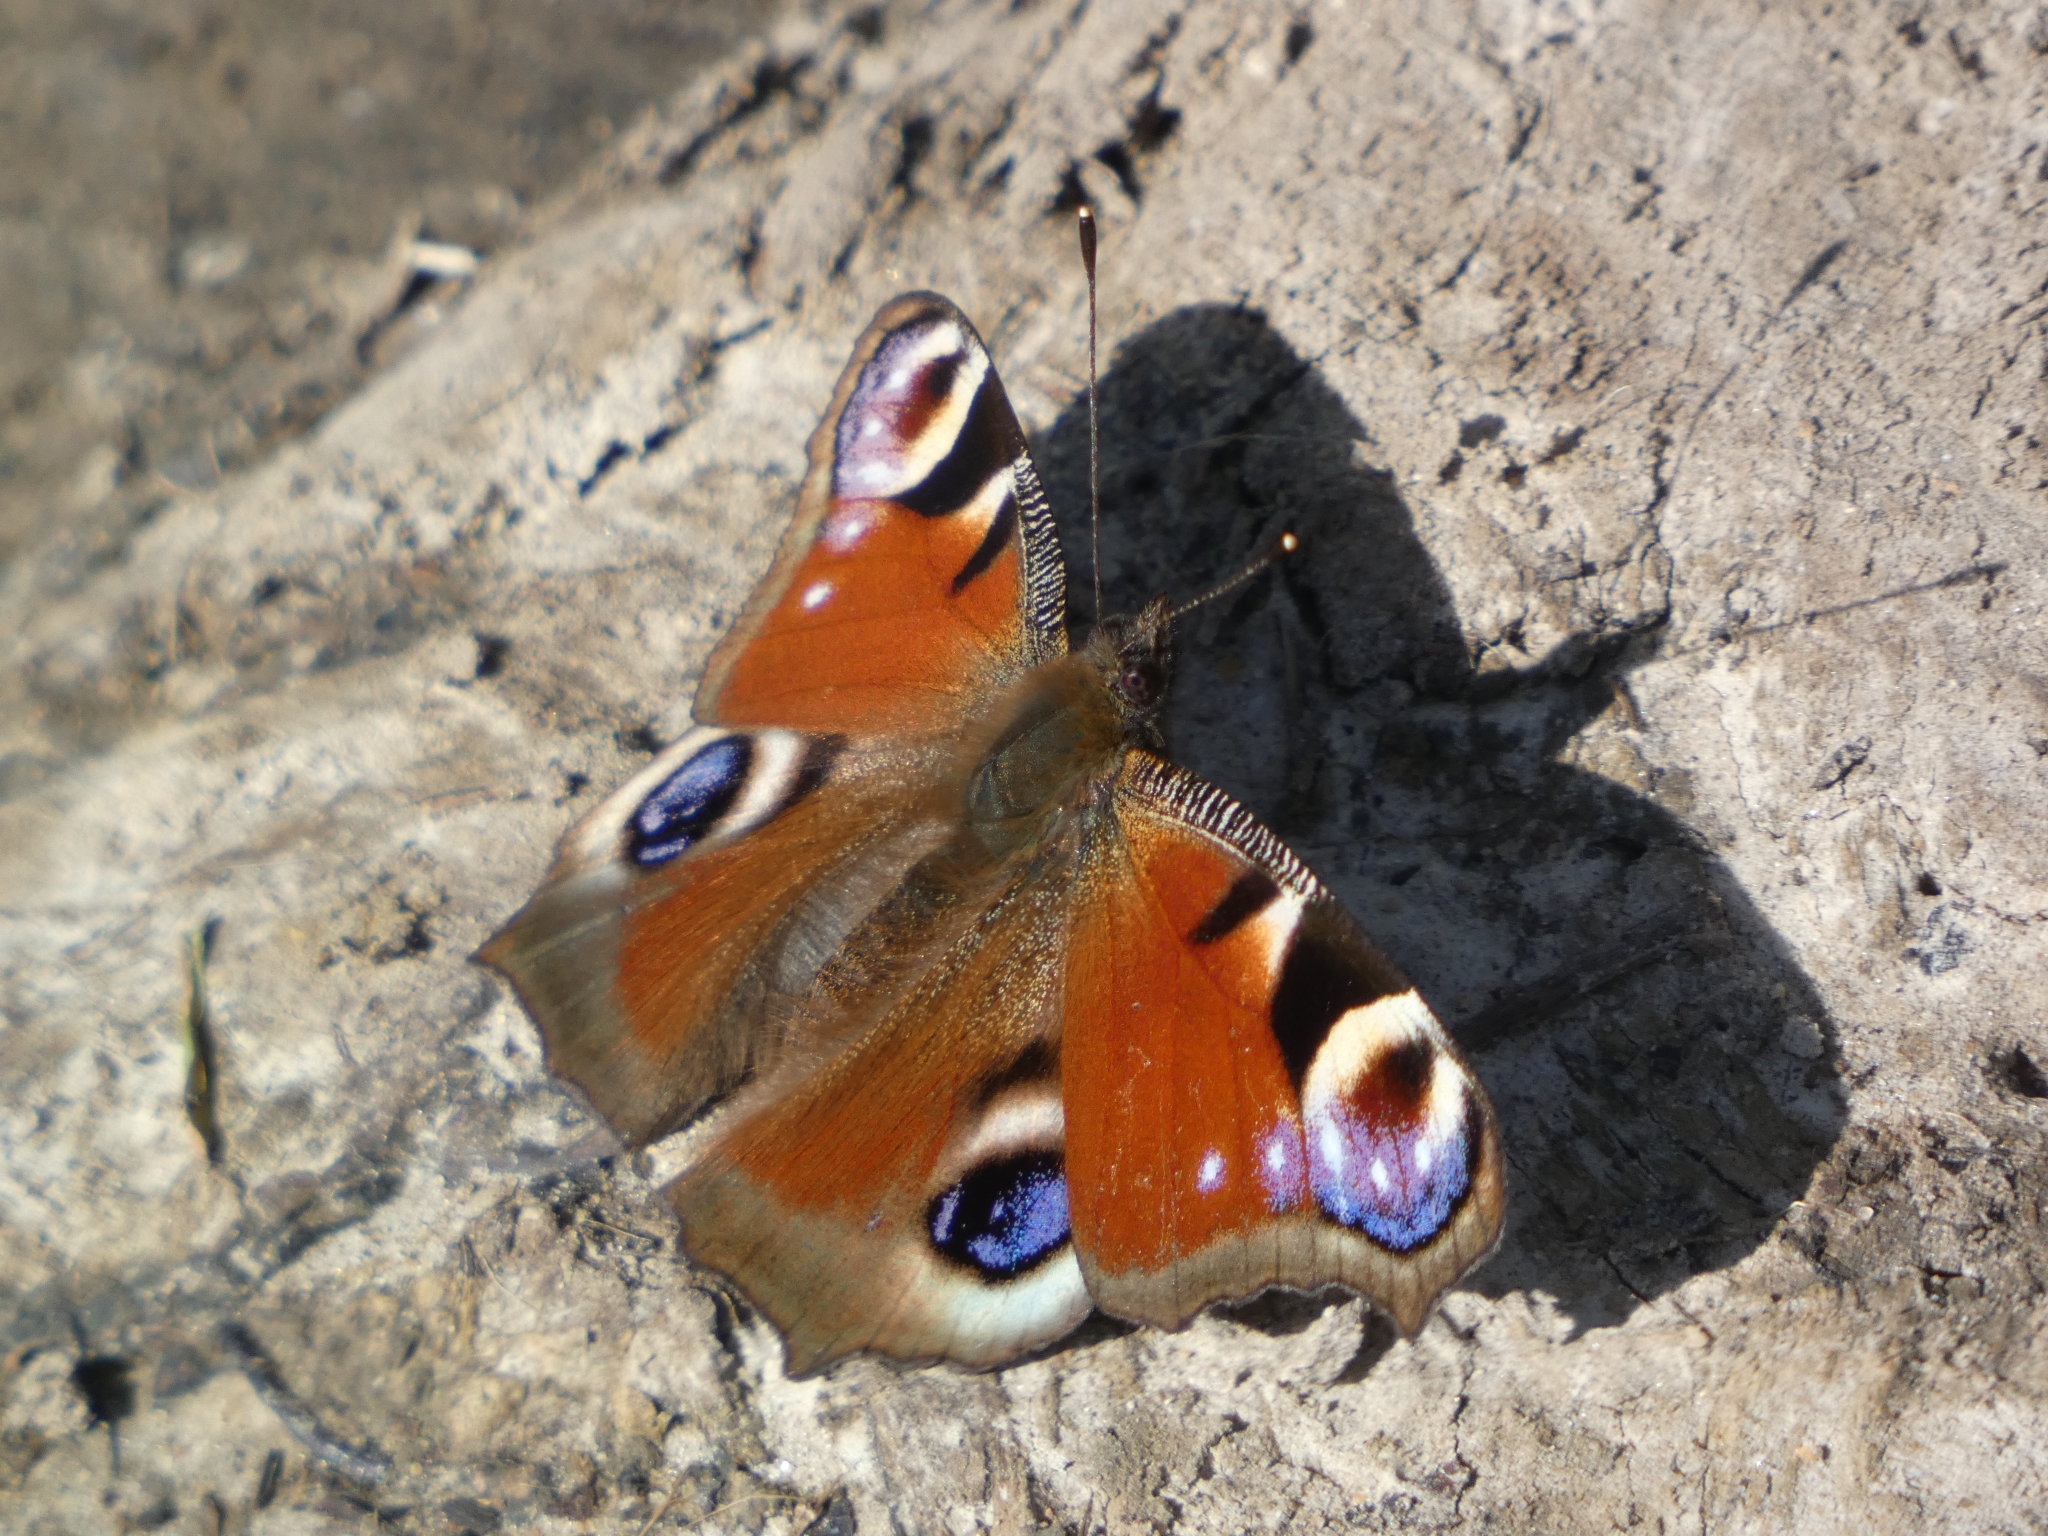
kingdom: Animalia
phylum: Arthropoda
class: Insecta
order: Lepidoptera
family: Nymphalidae
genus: Aglais
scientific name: Aglais io
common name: Peacock
